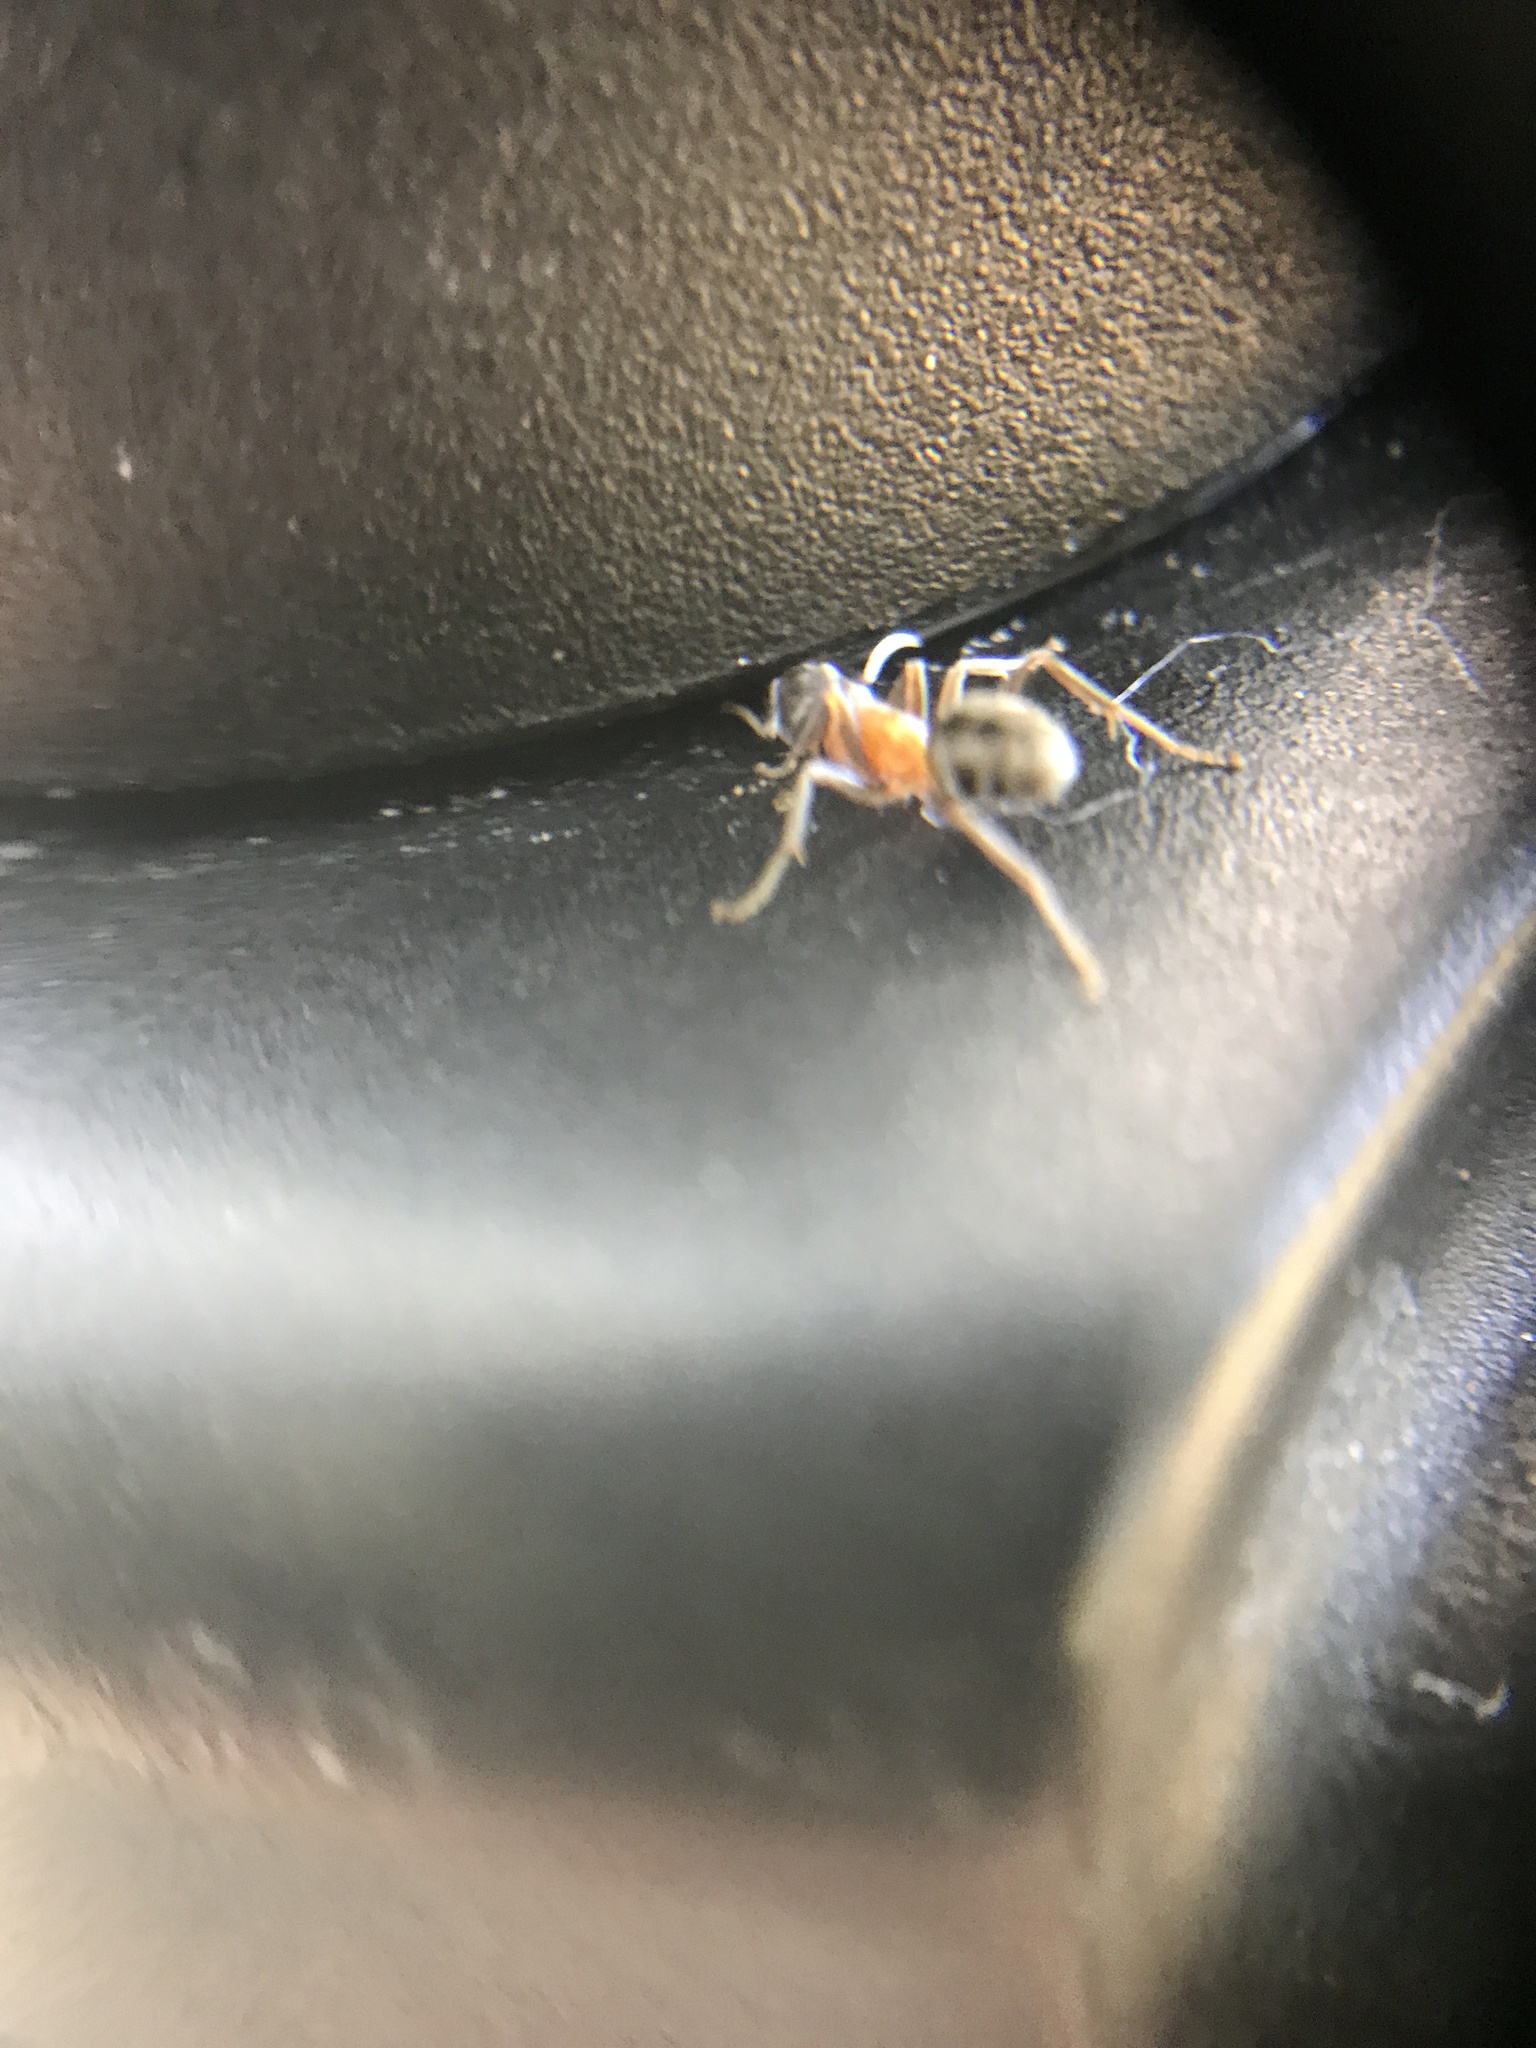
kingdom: Animalia
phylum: Arthropoda
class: Insecta
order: Hymenoptera
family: Formicidae
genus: Liometopum
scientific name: Liometopum occidentale
